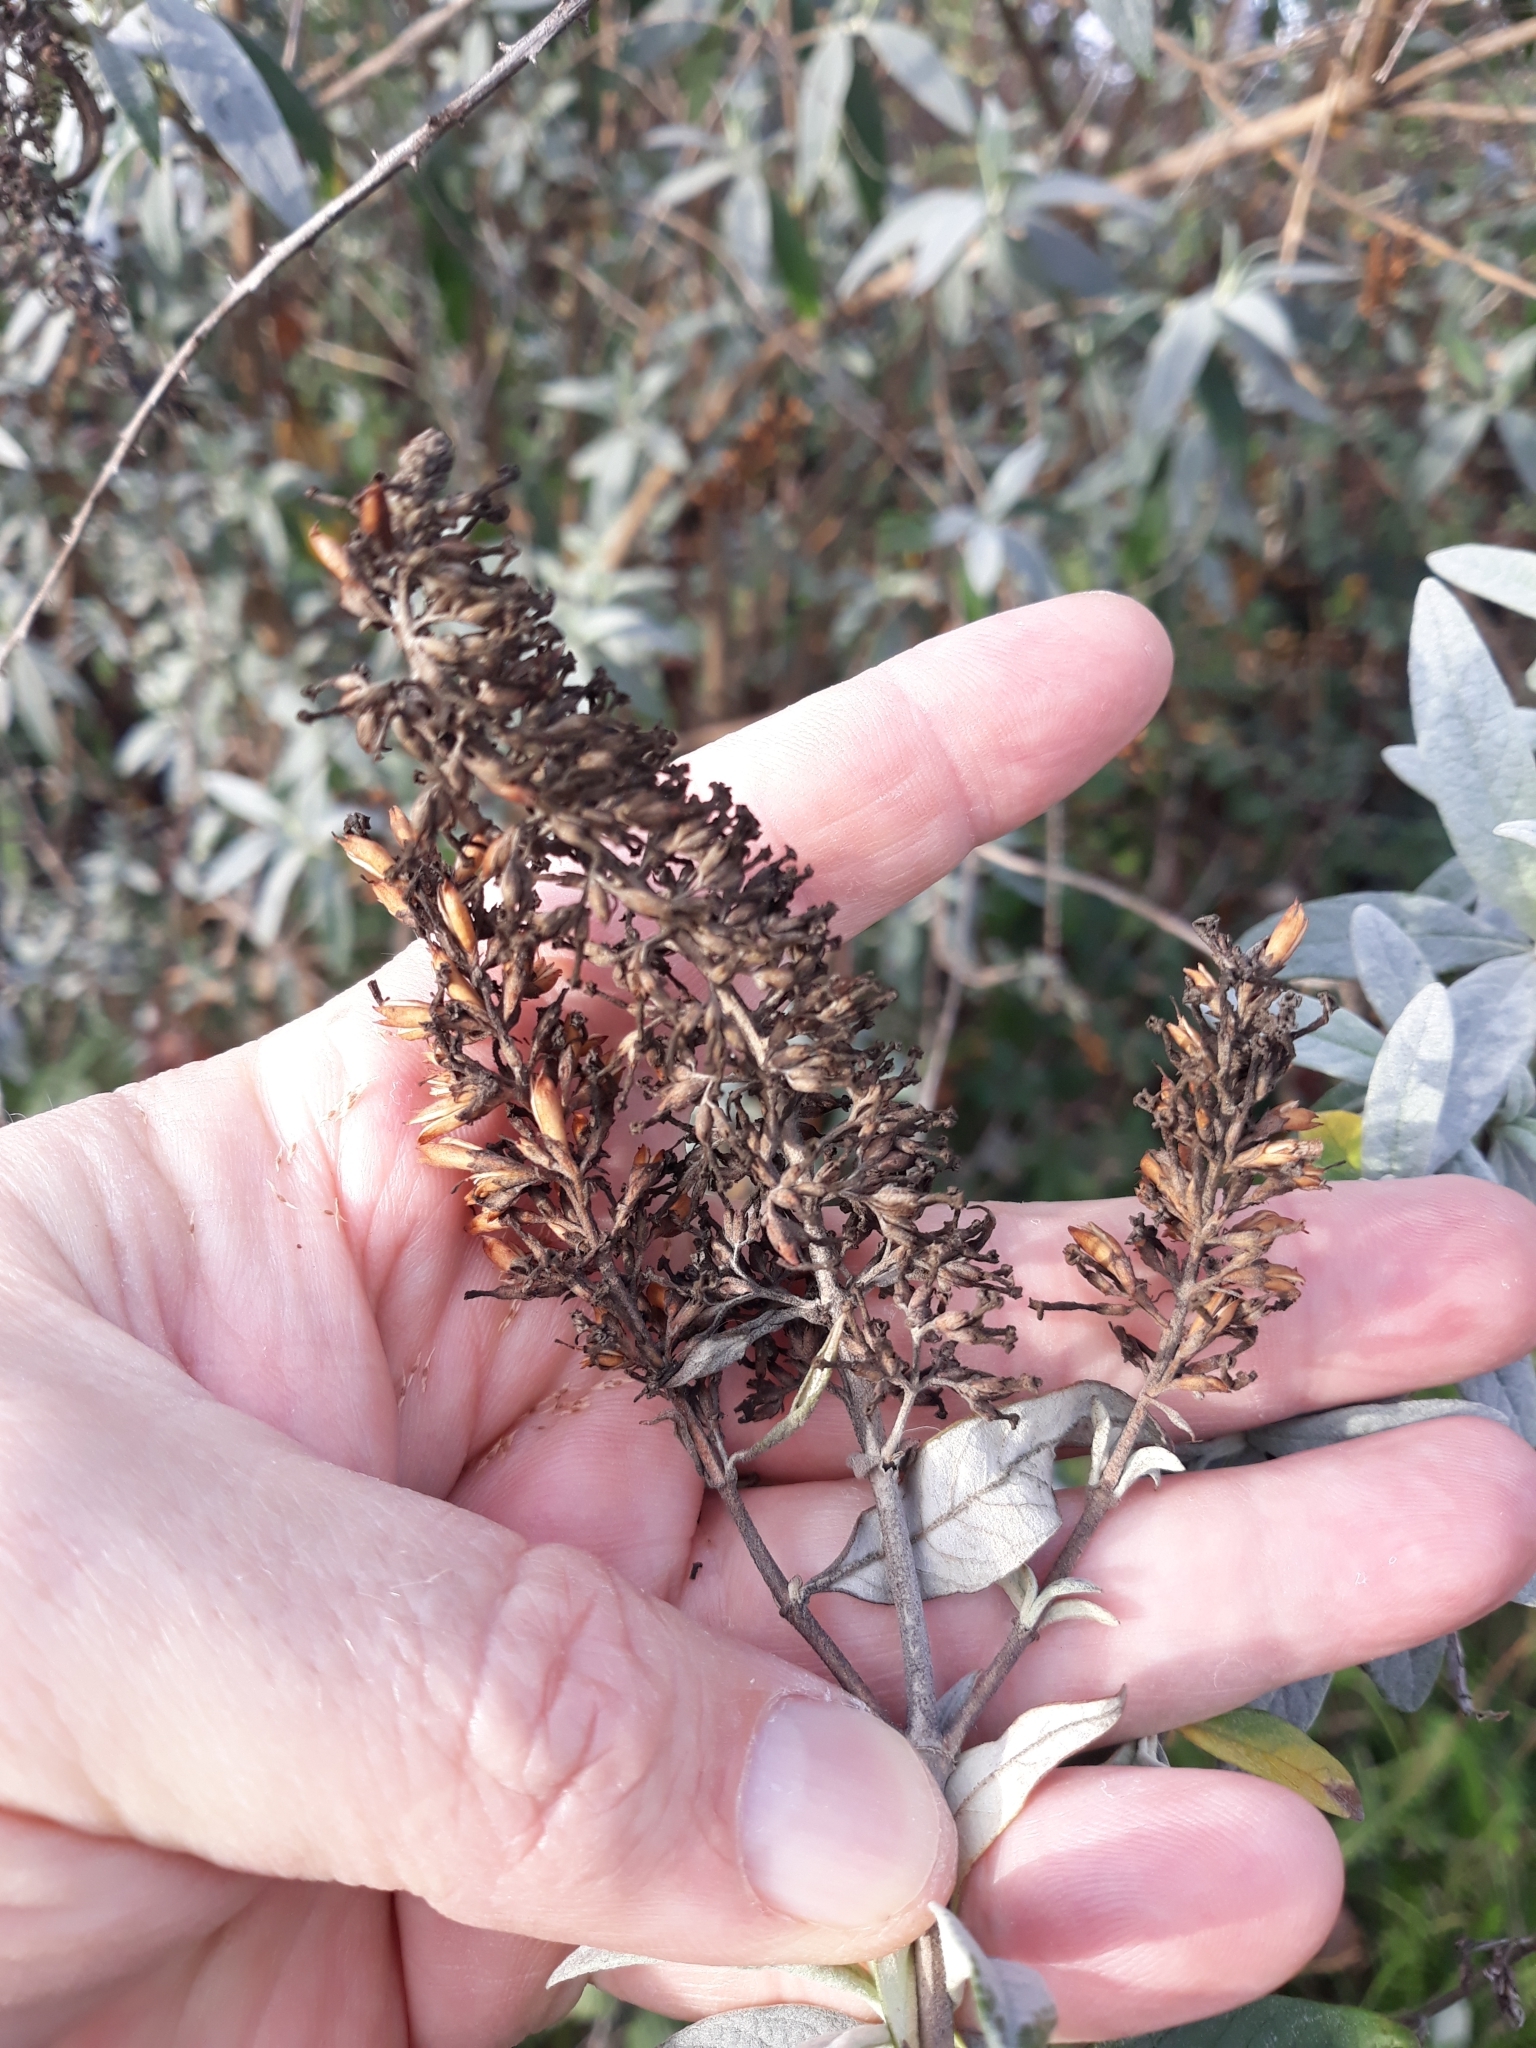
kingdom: Plantae
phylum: Tracheophyta
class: Magnoliopsida
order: Lamiales
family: Scrophulariaceae
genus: Buddleja
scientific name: Buddleja davidii
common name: Butterfly-bush
